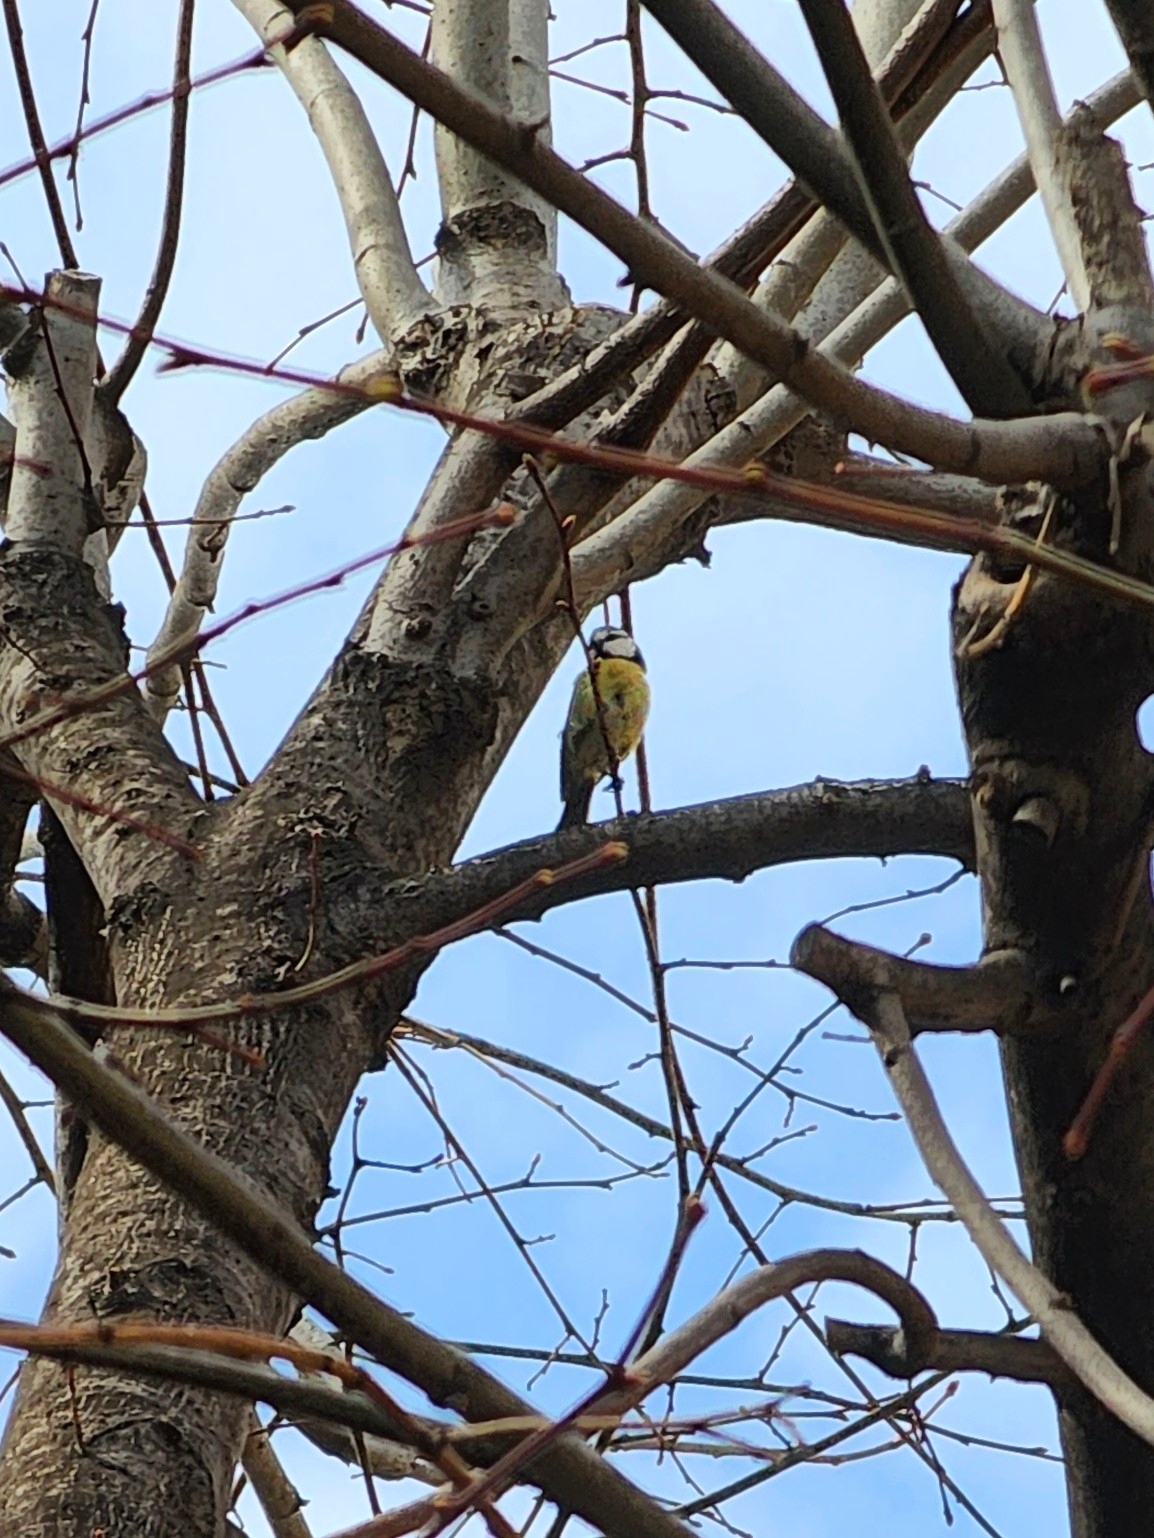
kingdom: Animalia
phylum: Chordata
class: Aves
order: Passeriformes
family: Paridae
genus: Cyanistes
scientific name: Cyanistes caeruleus
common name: Eurasian blue tit
